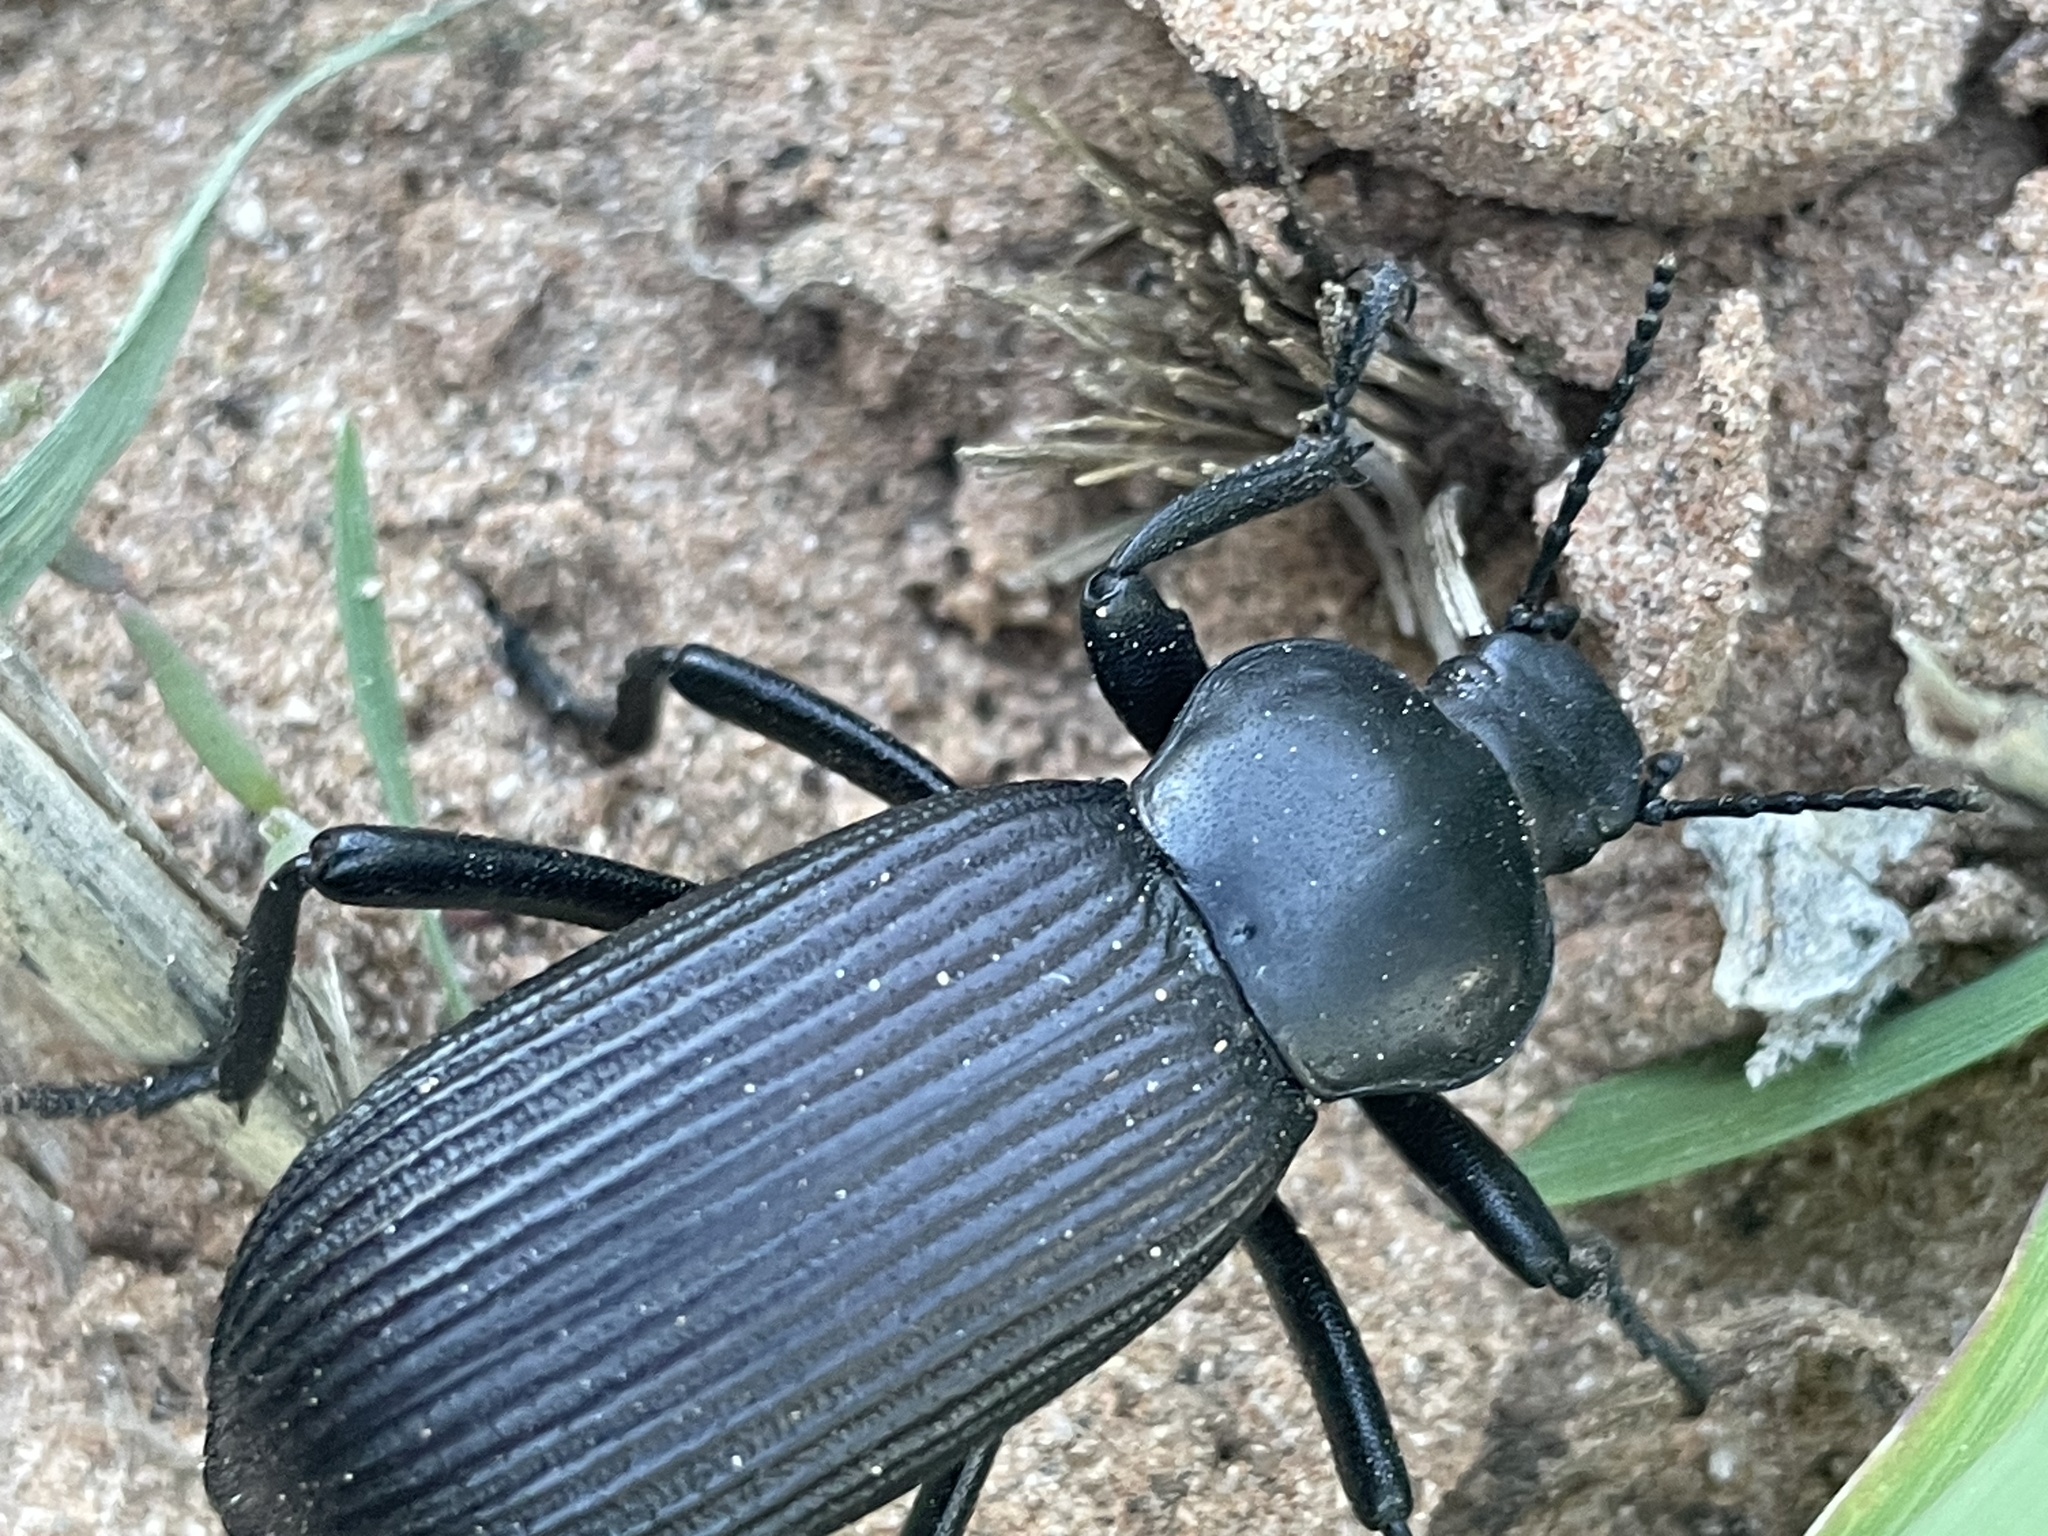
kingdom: Animalia
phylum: Arthropoda
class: Insecta
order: Coleoptera
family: Tenebrionidae
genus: Eleodes
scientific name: Eleodes obscura
